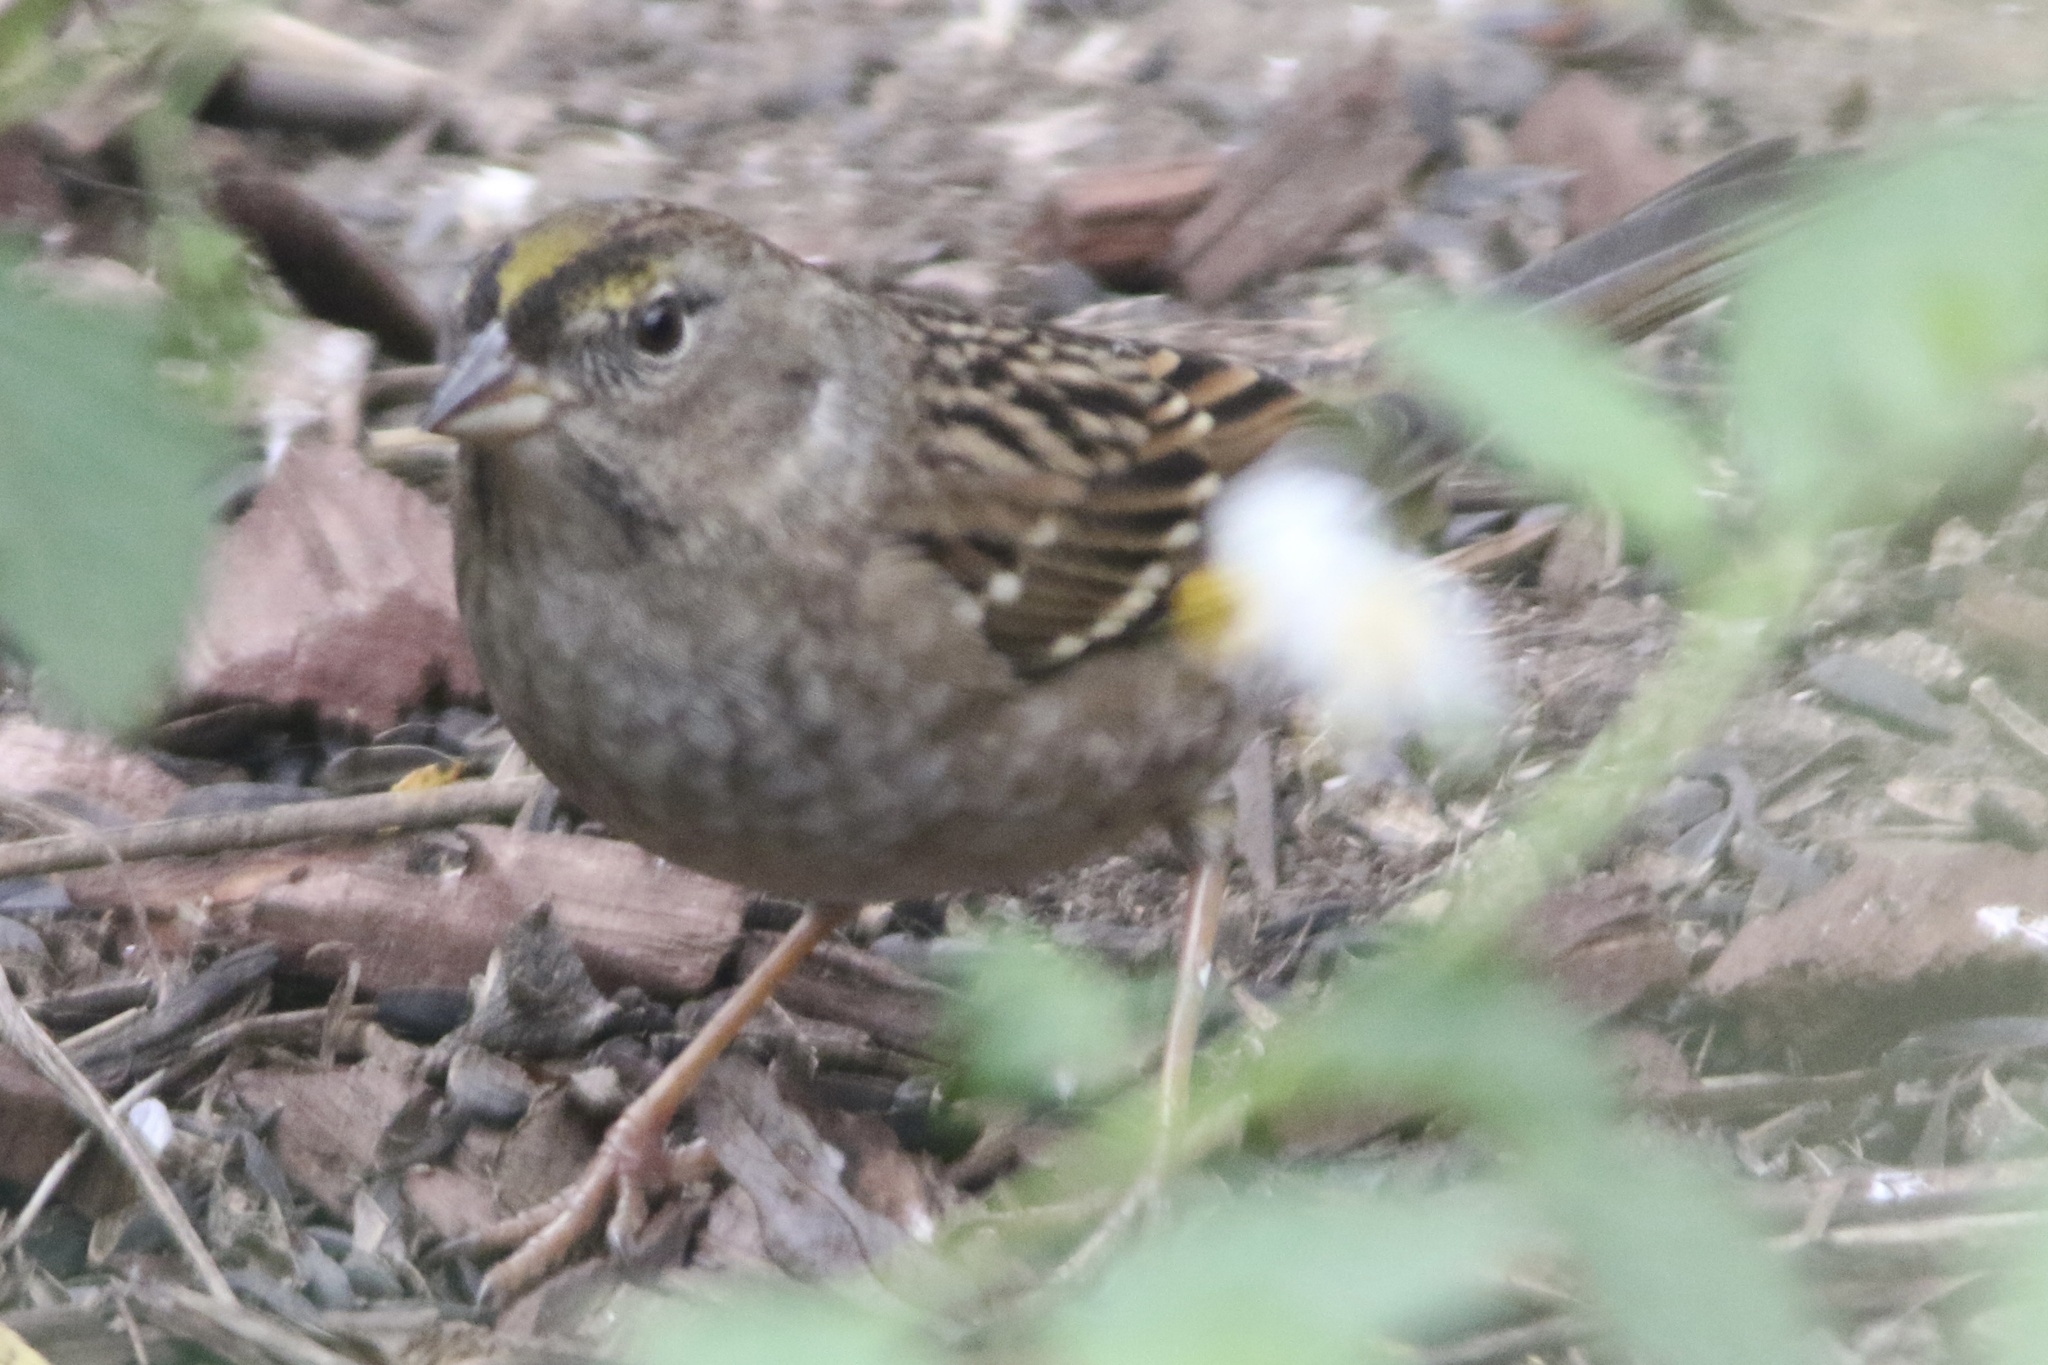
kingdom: Animalia
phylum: Chordata
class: Aves
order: Passeriformes
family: Passerellidae
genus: Zonotrichia
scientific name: Zonotrichia atricapilla
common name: Golden-crowned sparrow
